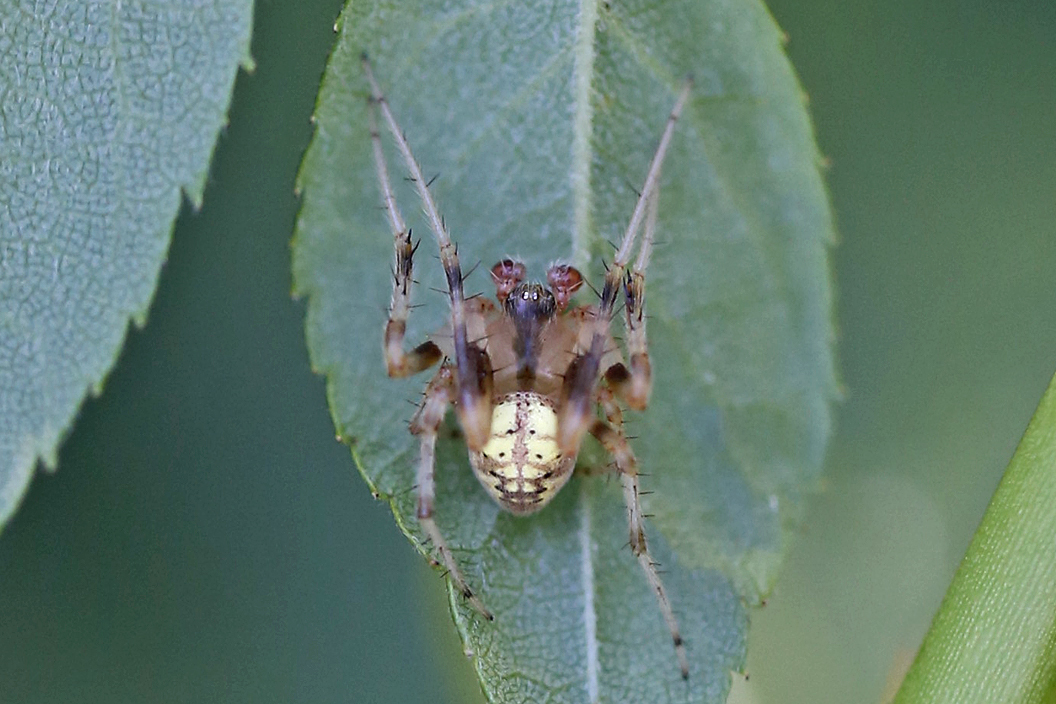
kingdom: Animalia
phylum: Arthropoda
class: Arachnida
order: Araneae
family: Araneidae
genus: Araneus
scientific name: Araneus thaddeus
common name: Lattice orbweaver
